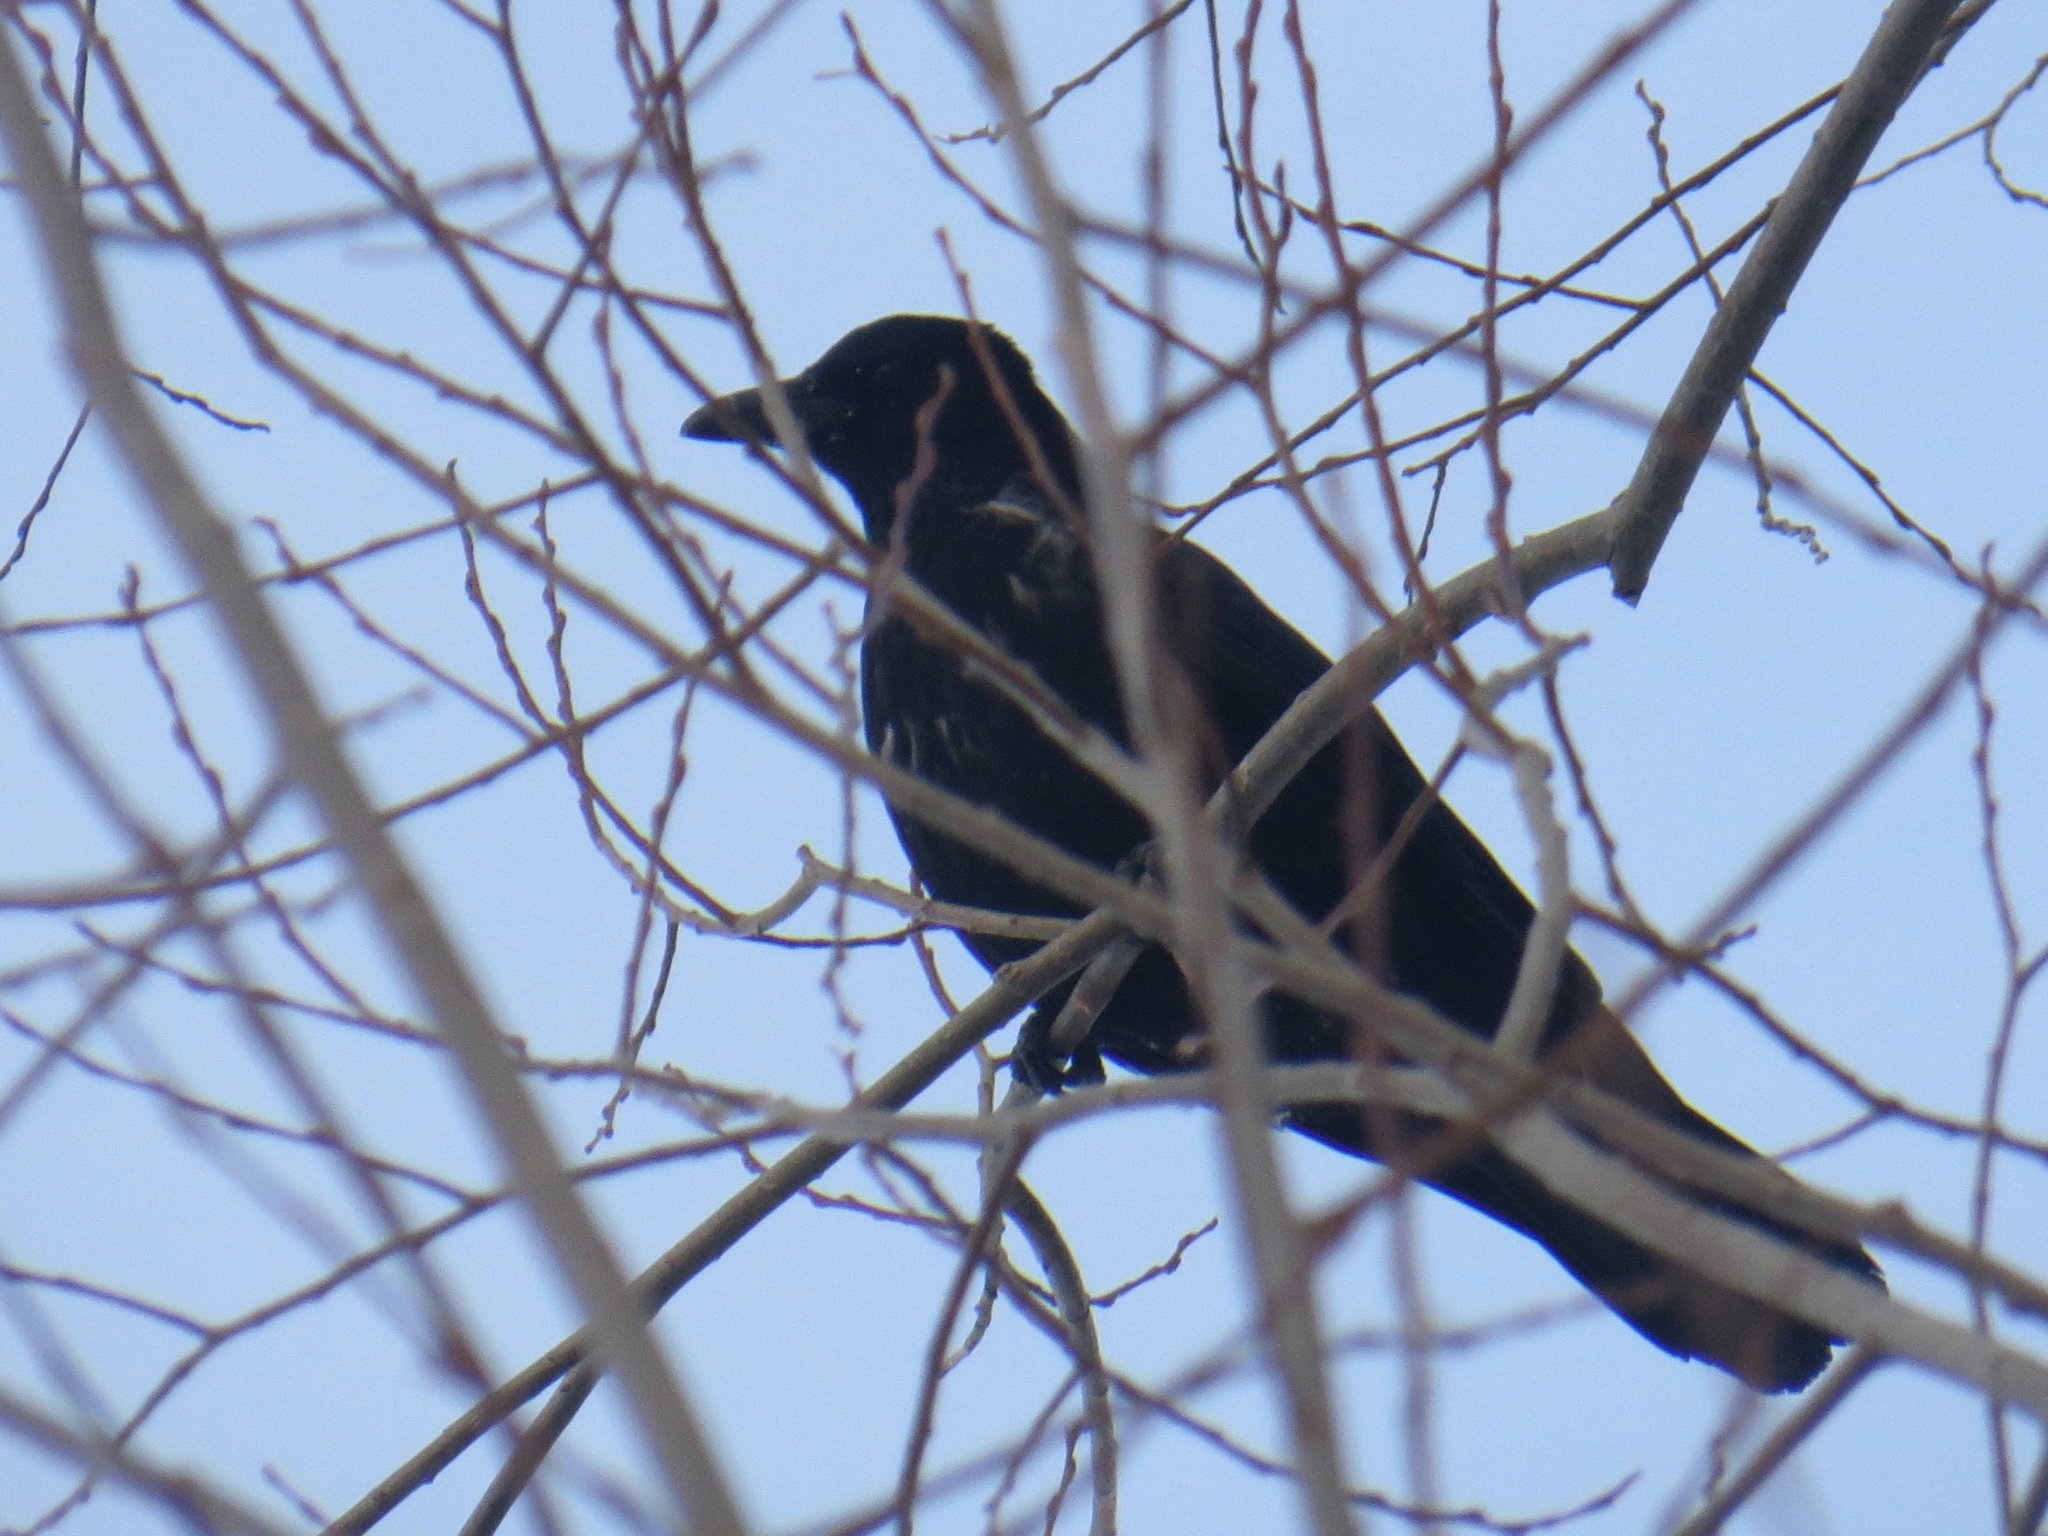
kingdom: Animalia
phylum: Chordata
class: Aves
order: Passeriformes
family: Corvidae
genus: Corvus
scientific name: Corvus
